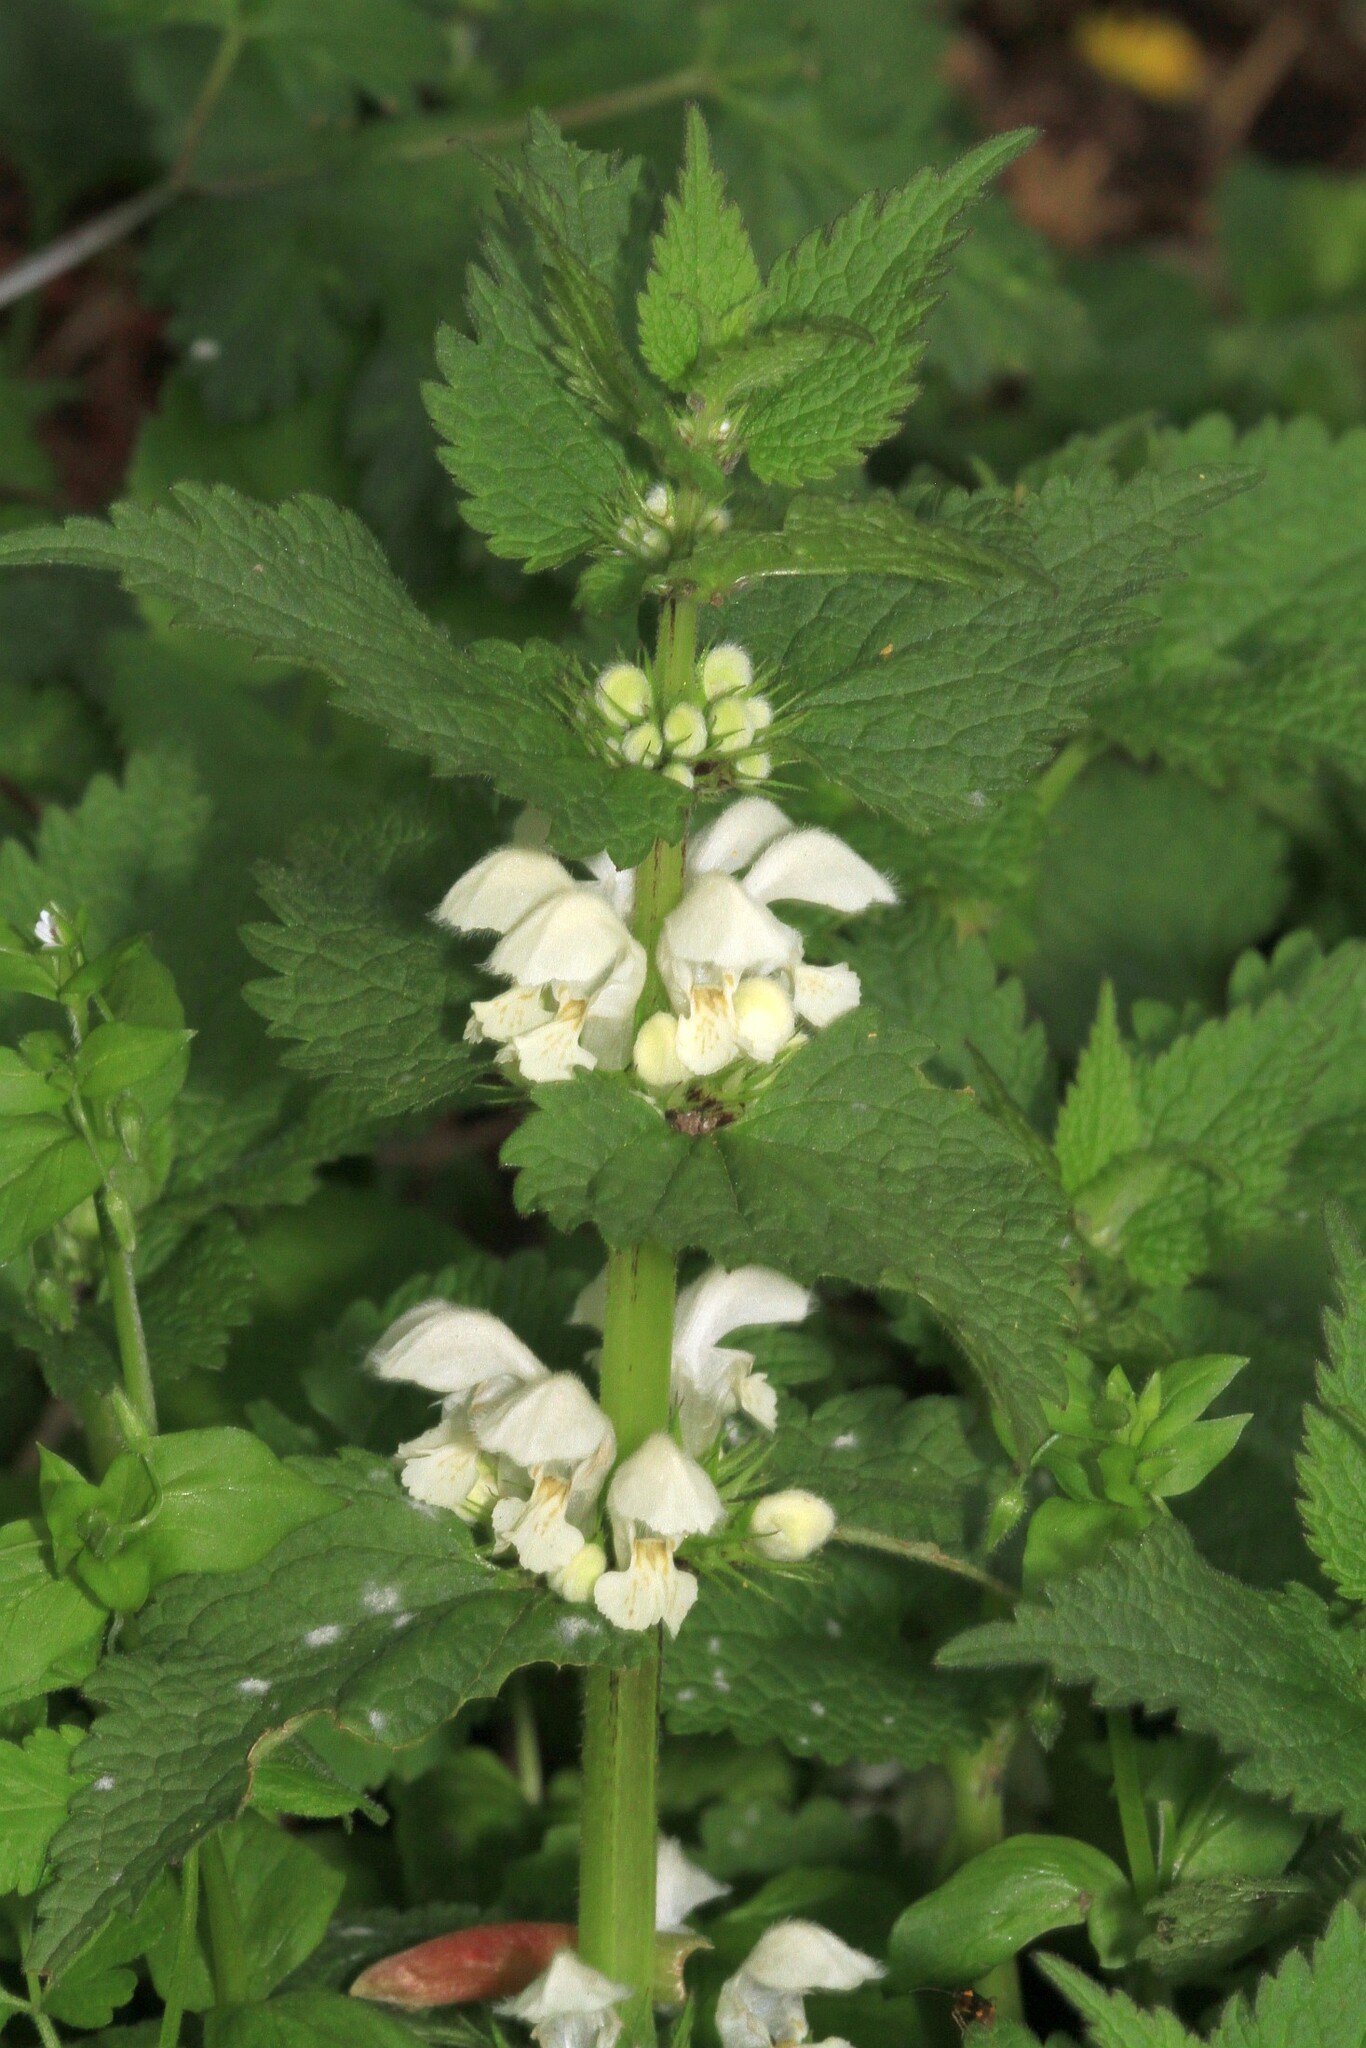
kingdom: Plantae
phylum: Tracheophyta
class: Magnoliopsida
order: Lamiales
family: Lamiaceae
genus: Lamium
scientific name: Lamium album
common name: White dead-nettle
